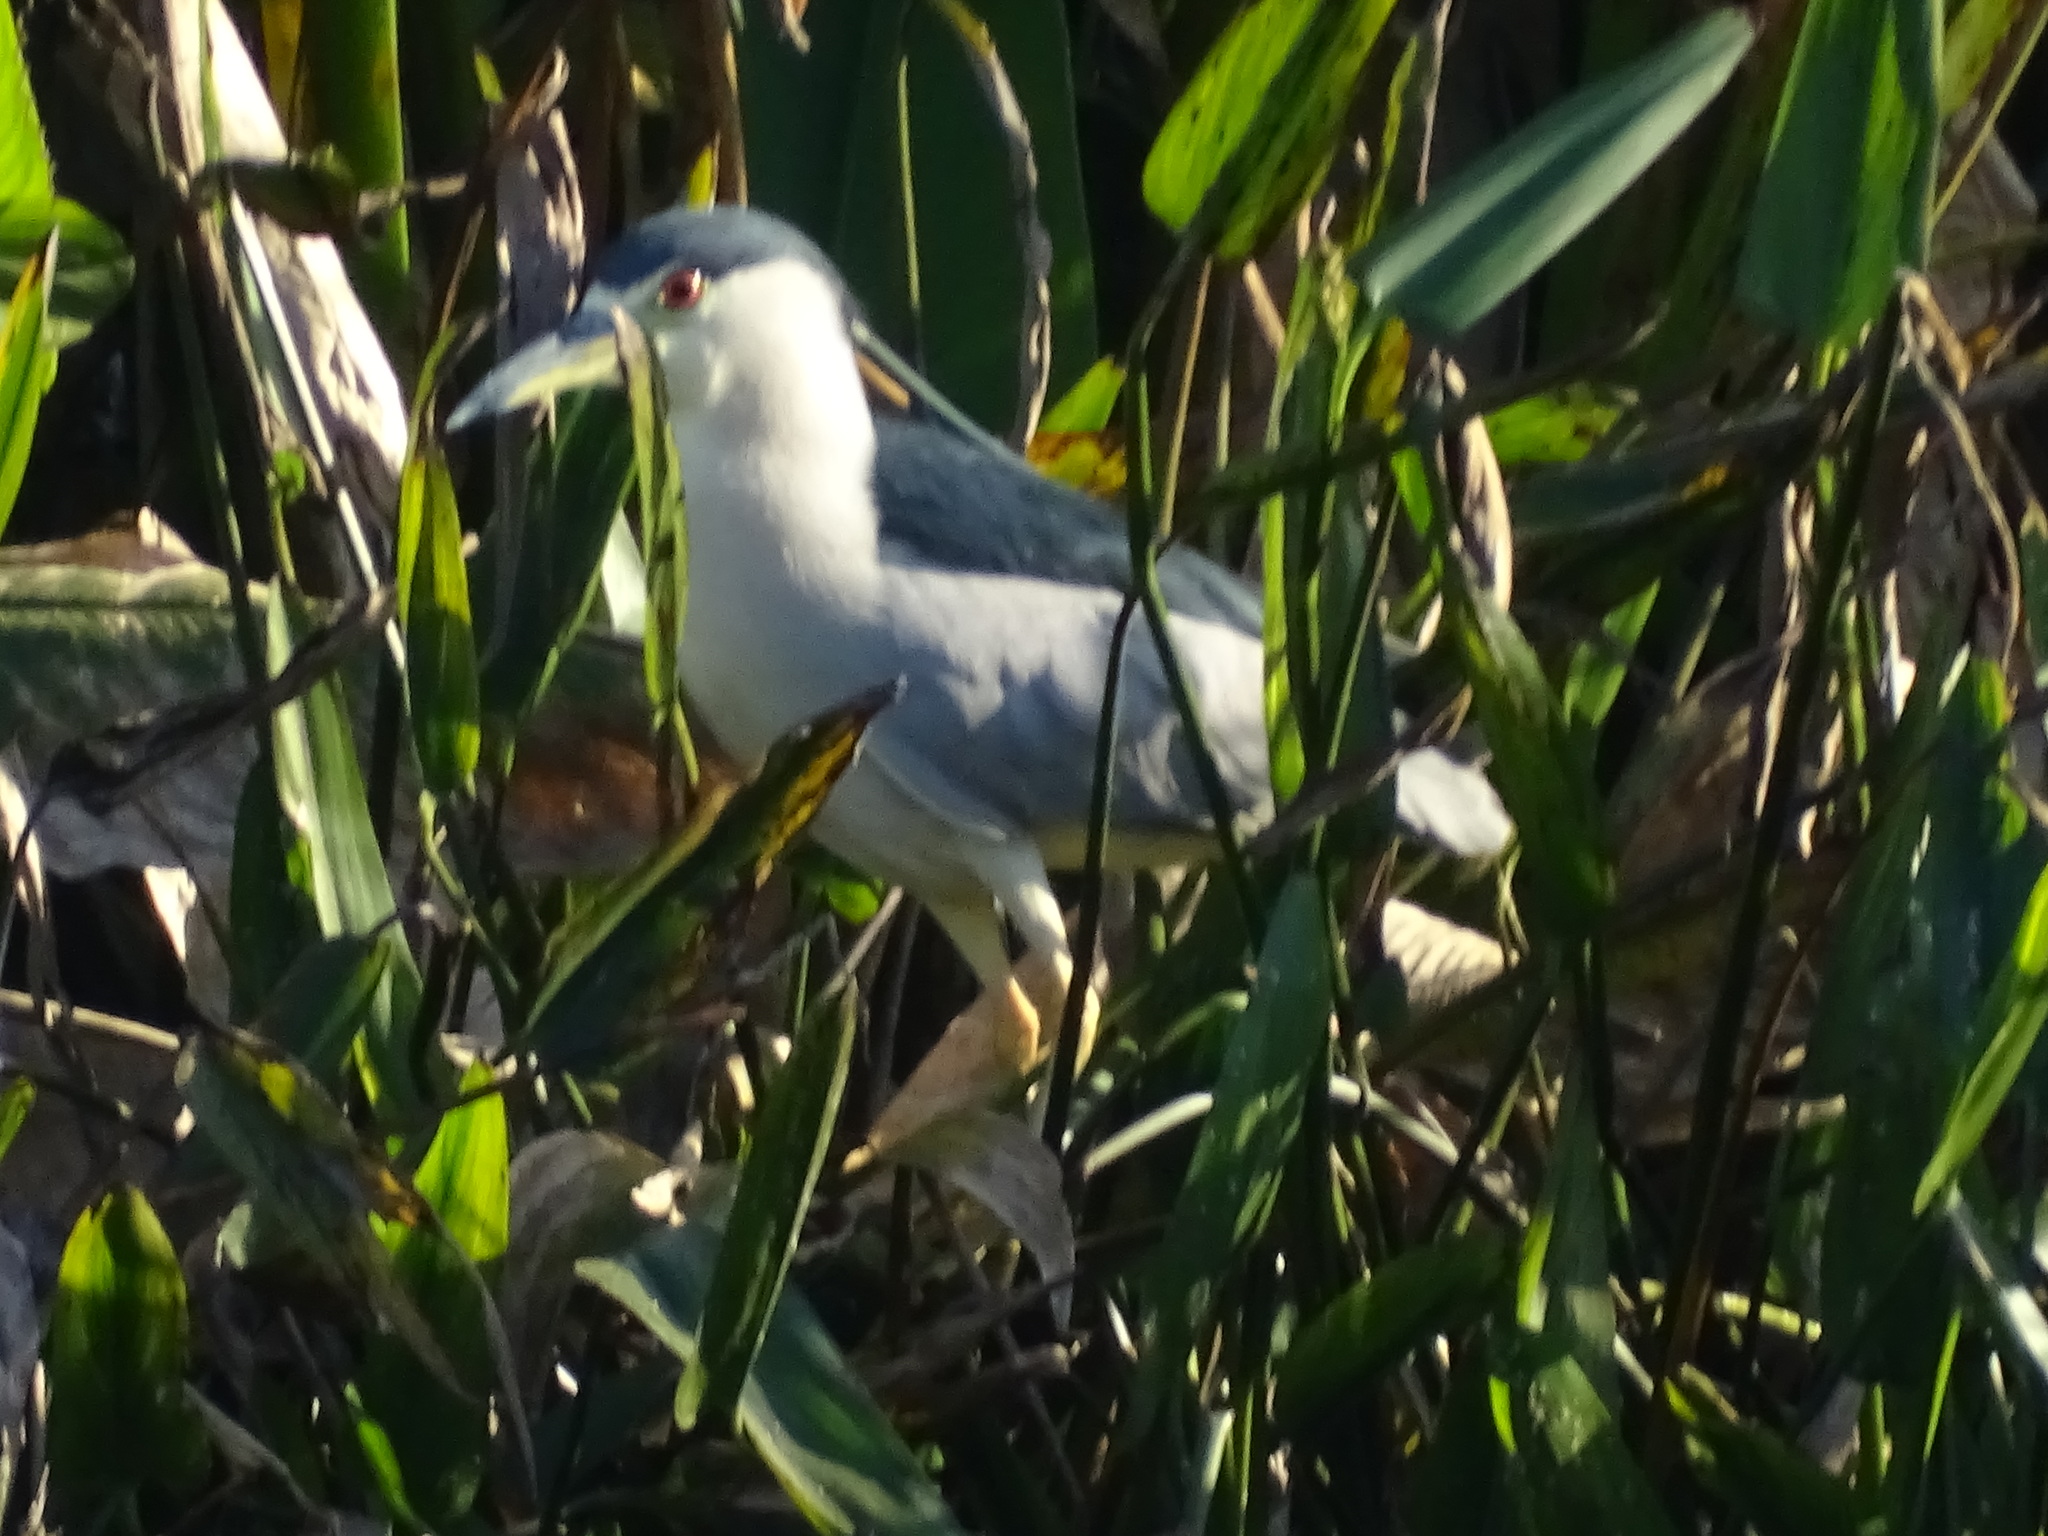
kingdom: Animalia
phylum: Chordata
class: Aves
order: Pelecaniformes
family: Ardeidae
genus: Nycticorax
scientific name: Nycticorax nycticorax
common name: Black-crowned night heron
